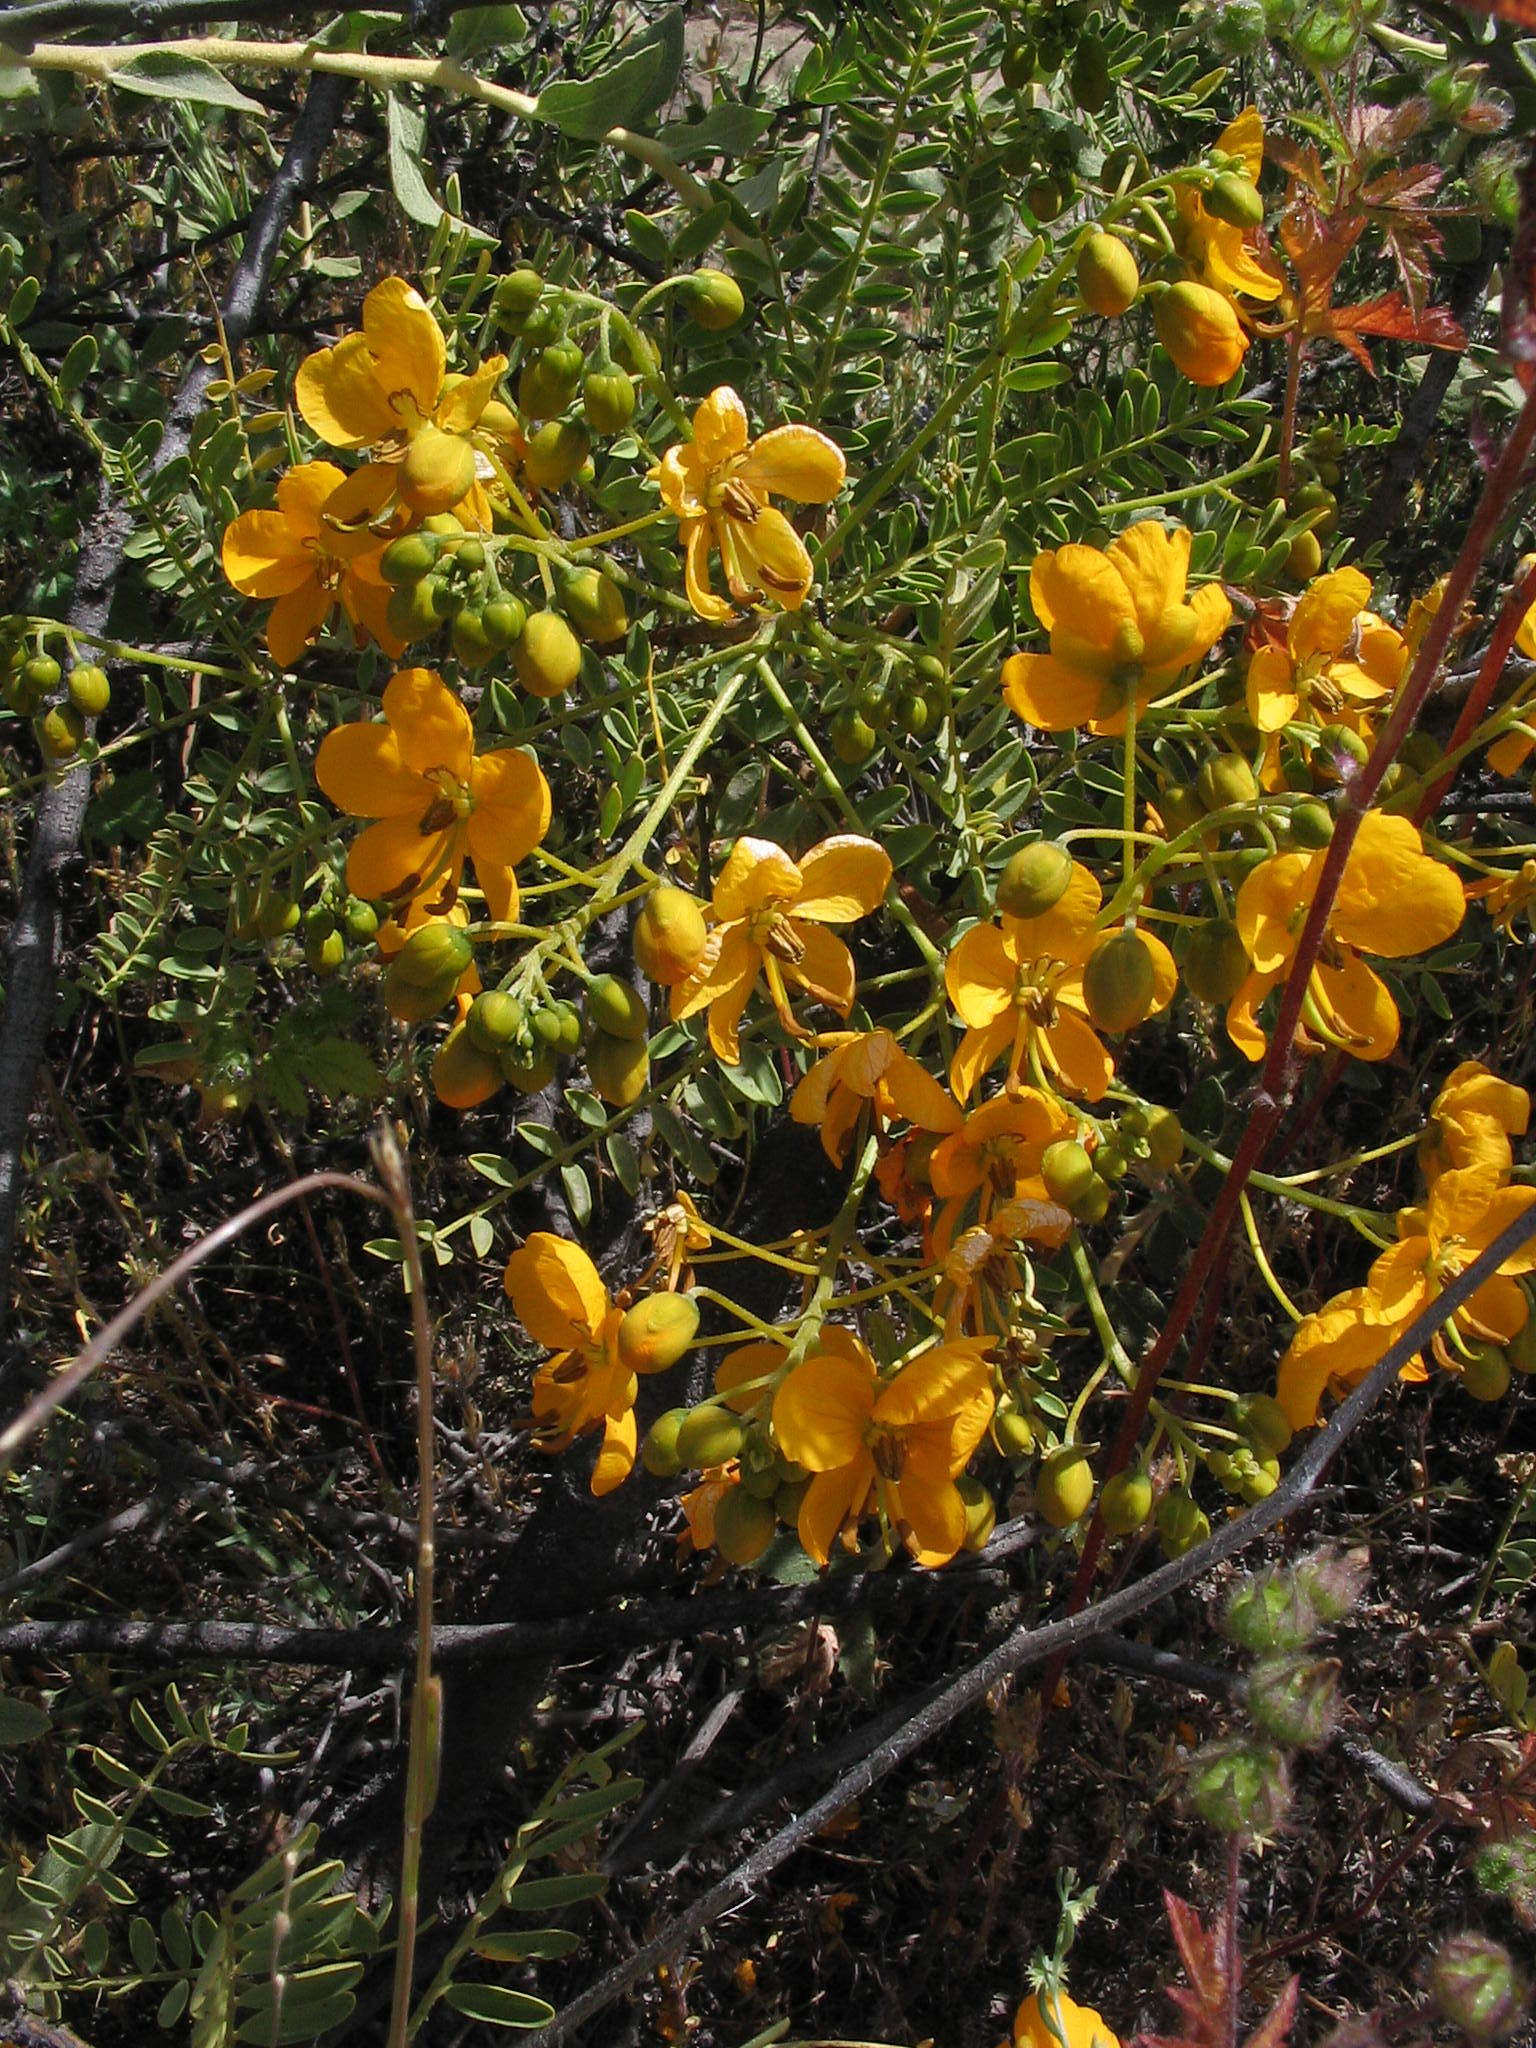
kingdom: Plantae
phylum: Tracheophyta
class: Magnoliopsida
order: Fabales
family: Fabaceae
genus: Senna
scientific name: Senna birostris
